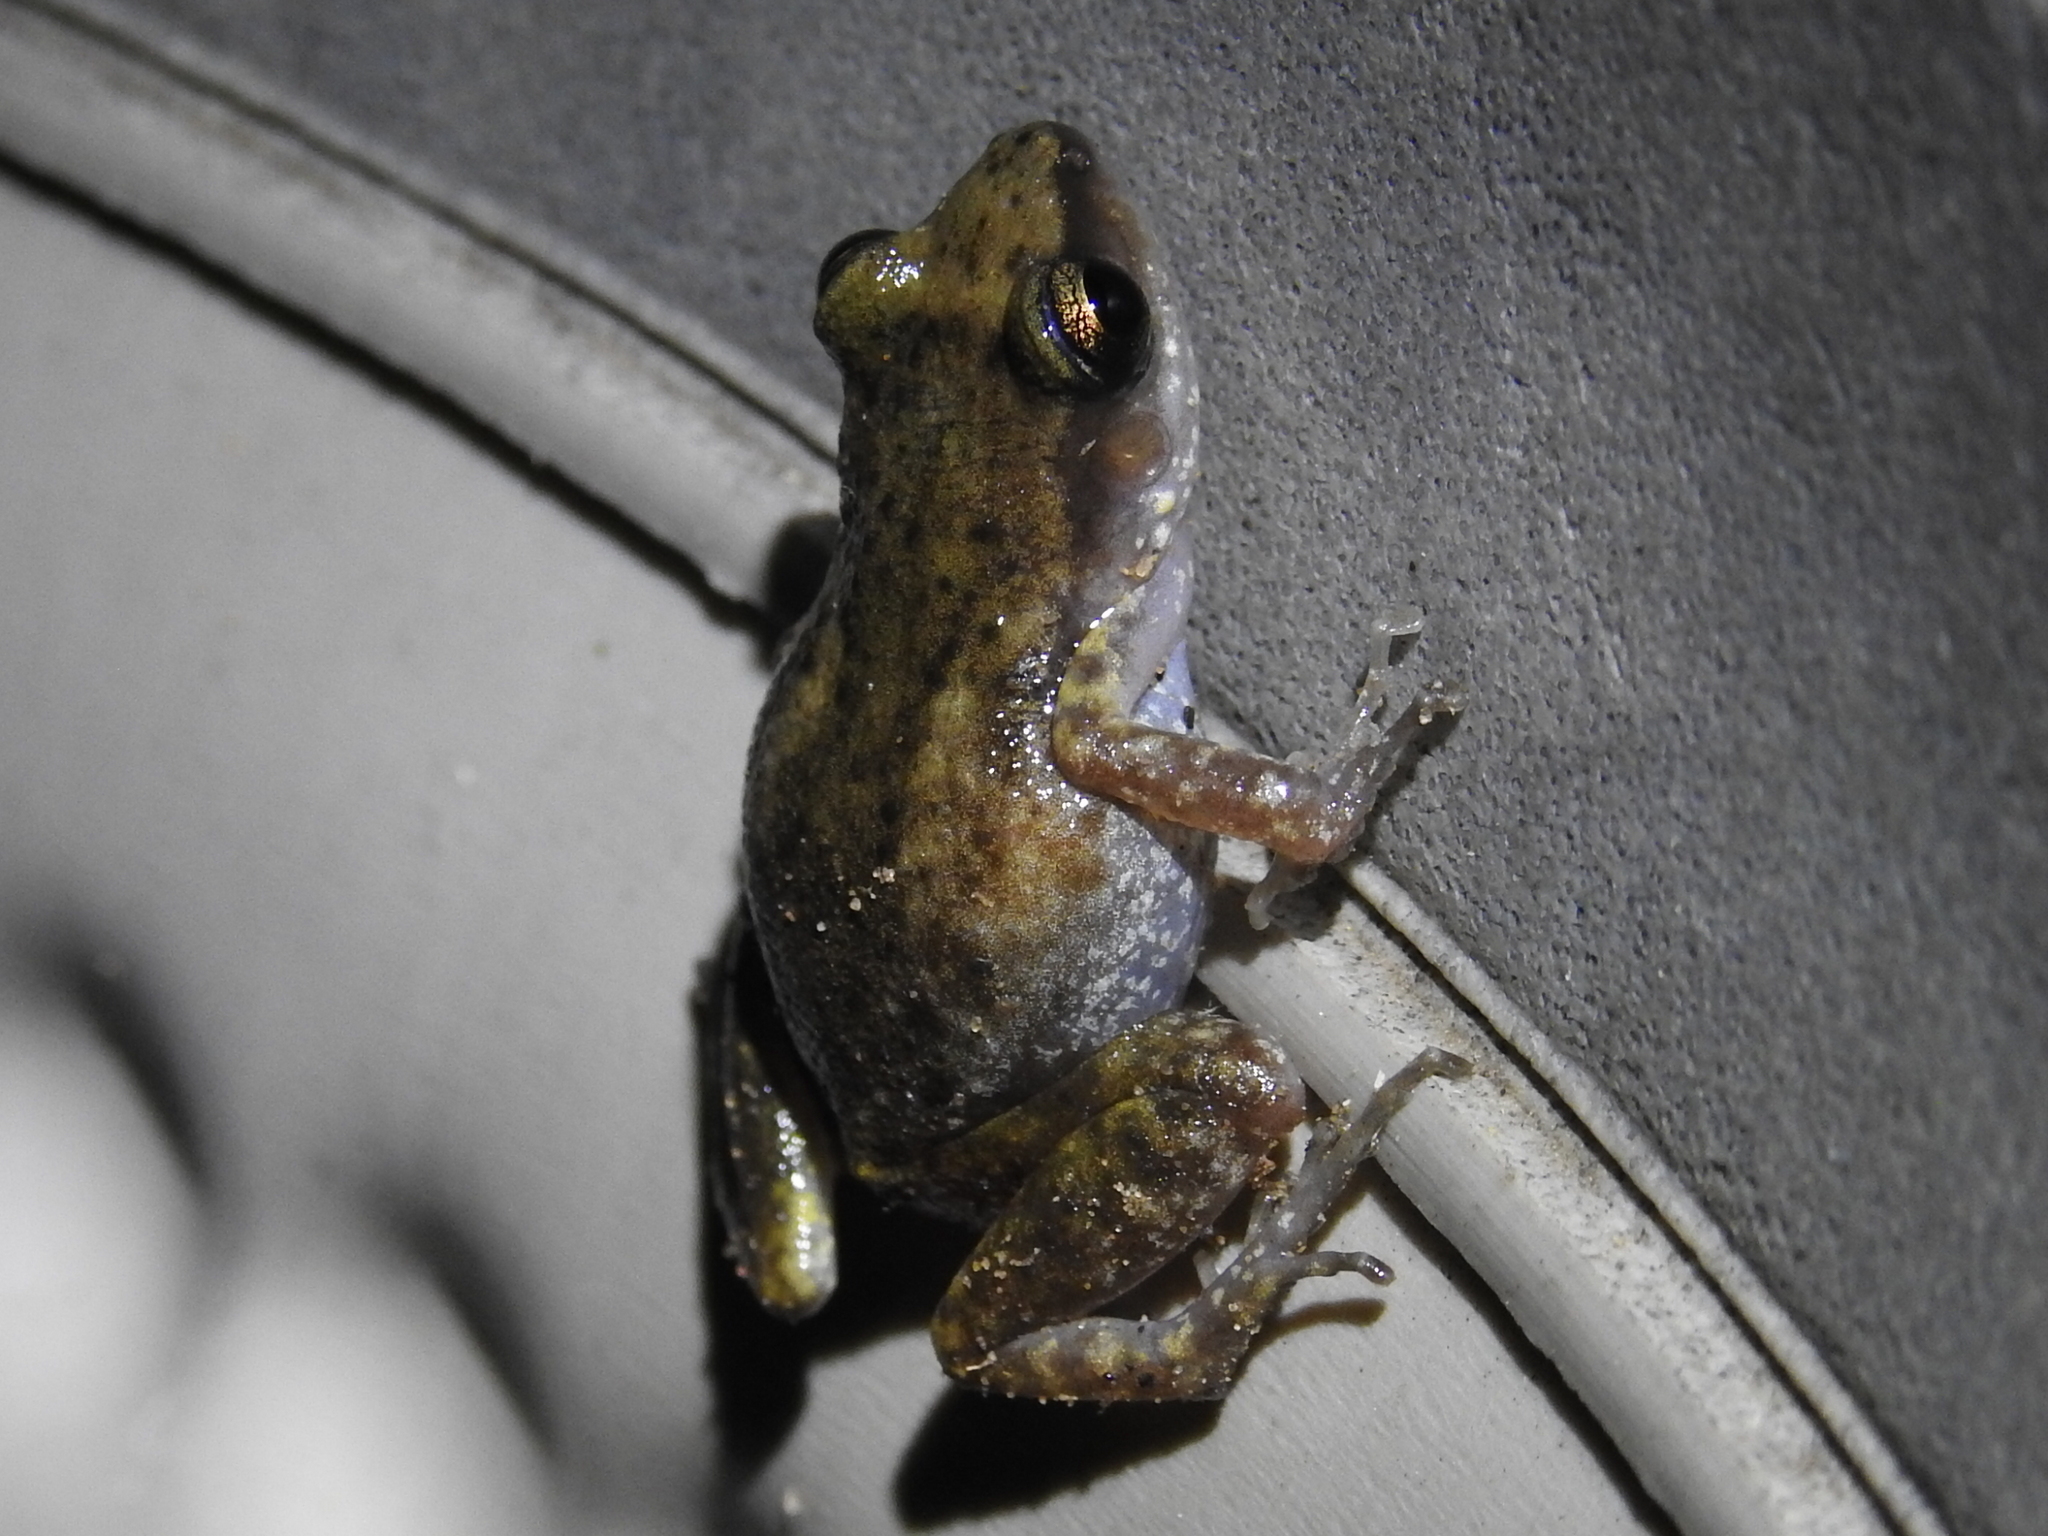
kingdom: Animalia
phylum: Chordata
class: Amphibia
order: Anura
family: Eleutherodactylidae
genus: Eleutherodactylus
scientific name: Eleutherodactylus campi
